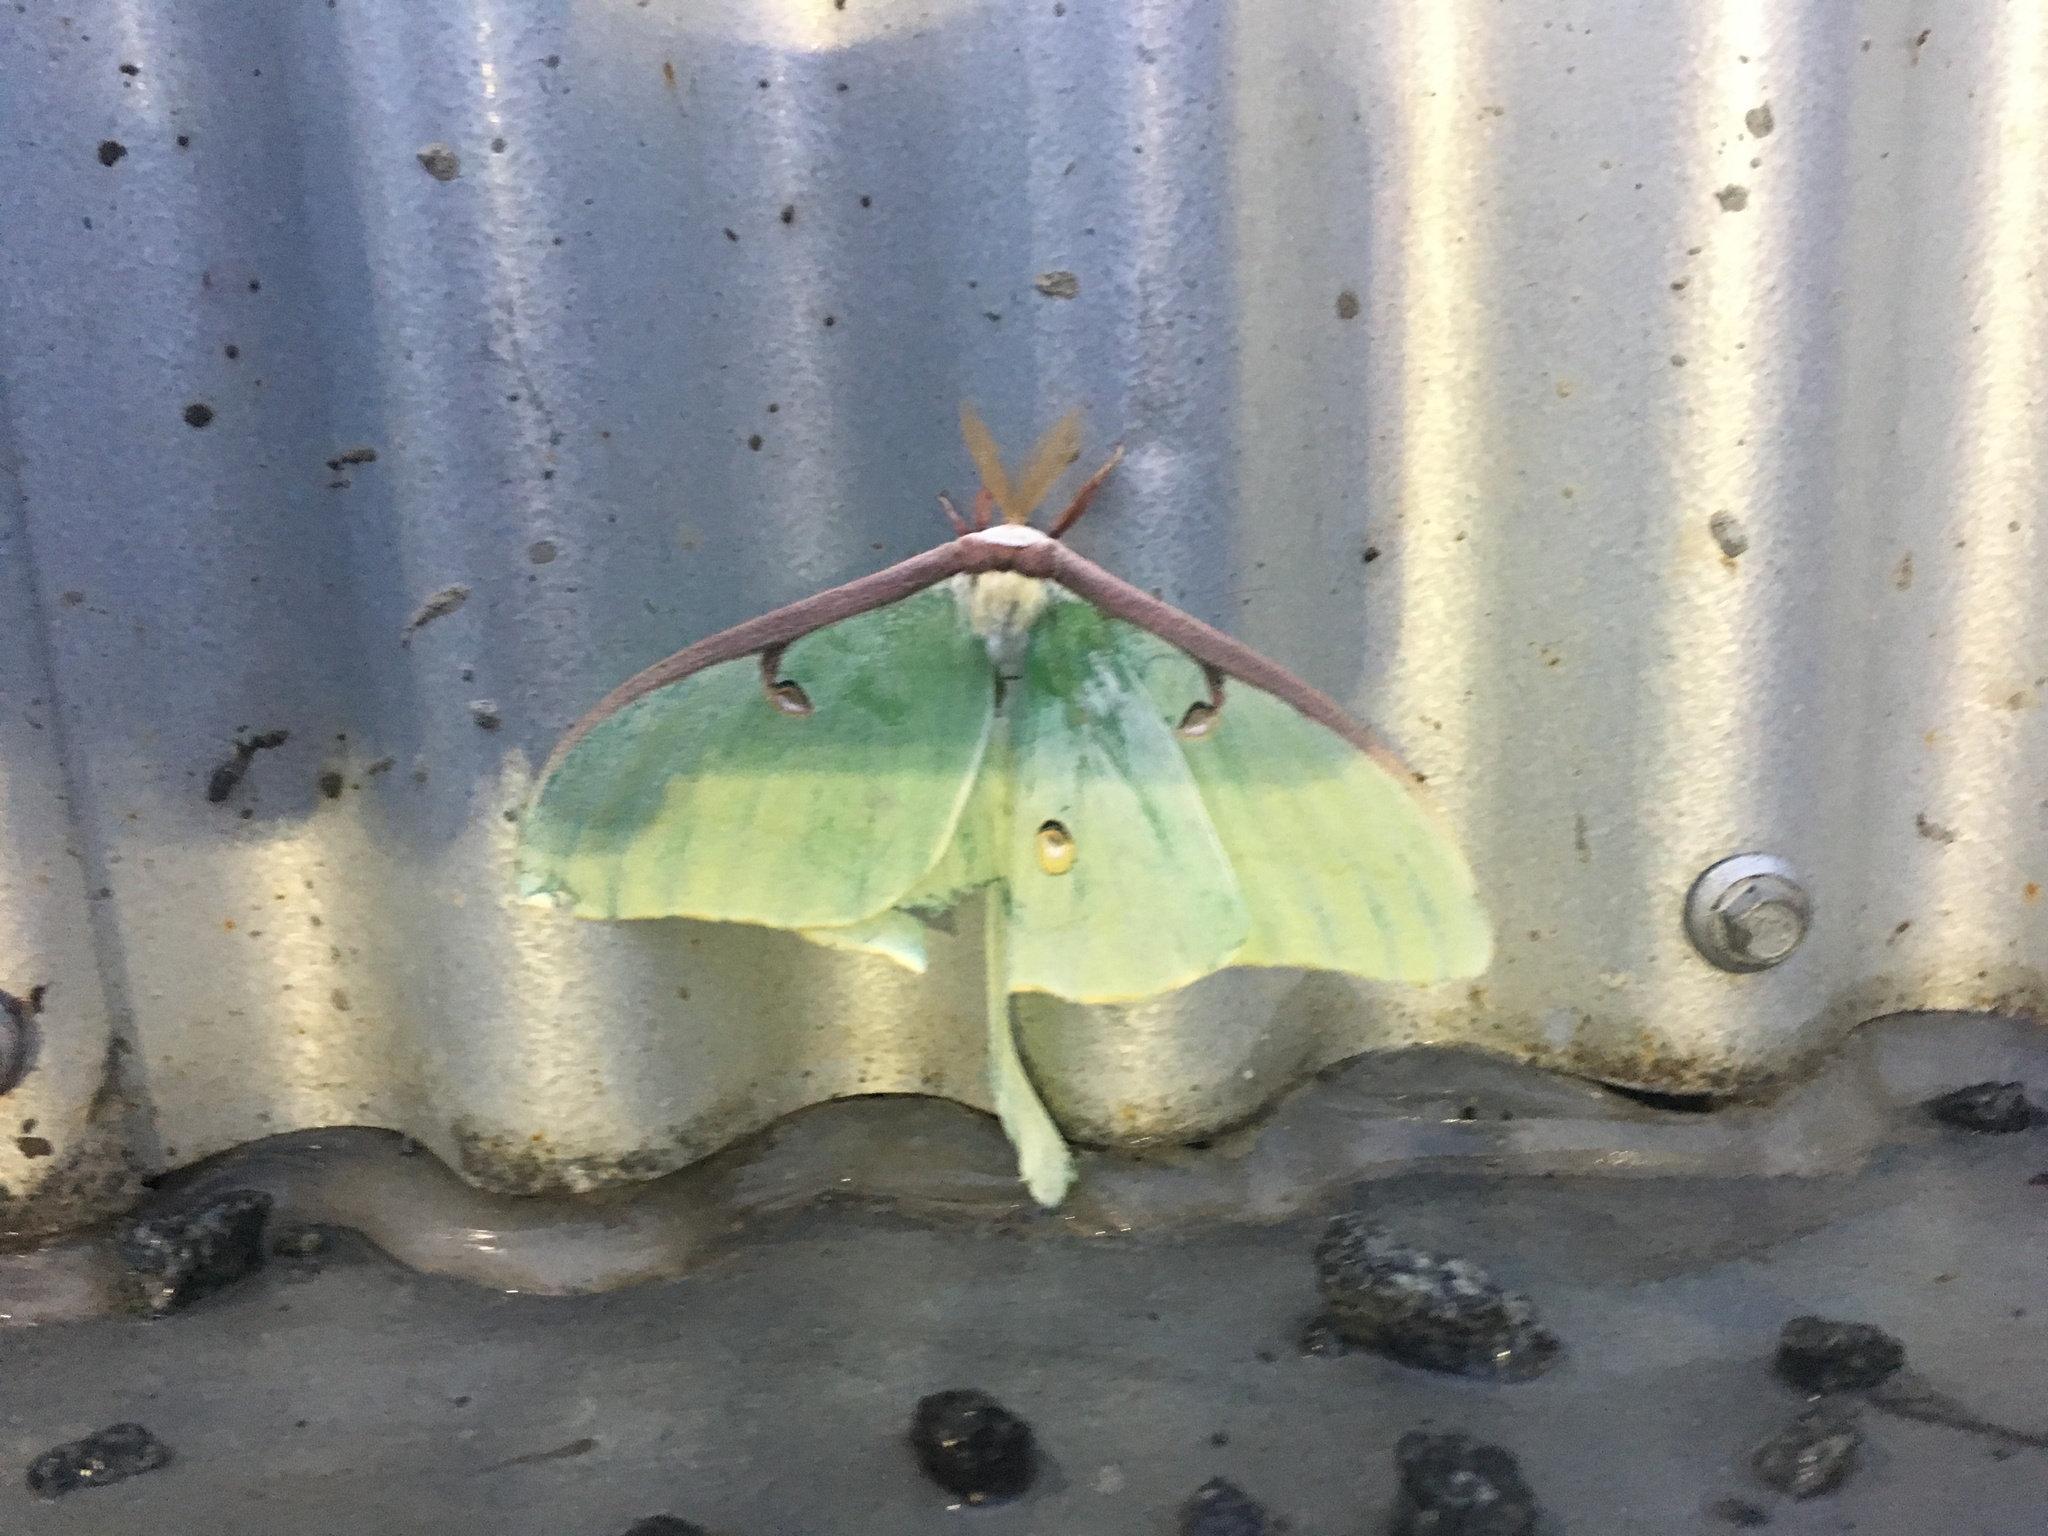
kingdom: Animalia
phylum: Arthropoda
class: Insecta
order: Lepidoptera
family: Saturniidae
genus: Actias
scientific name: Actias luna
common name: Luna moth
